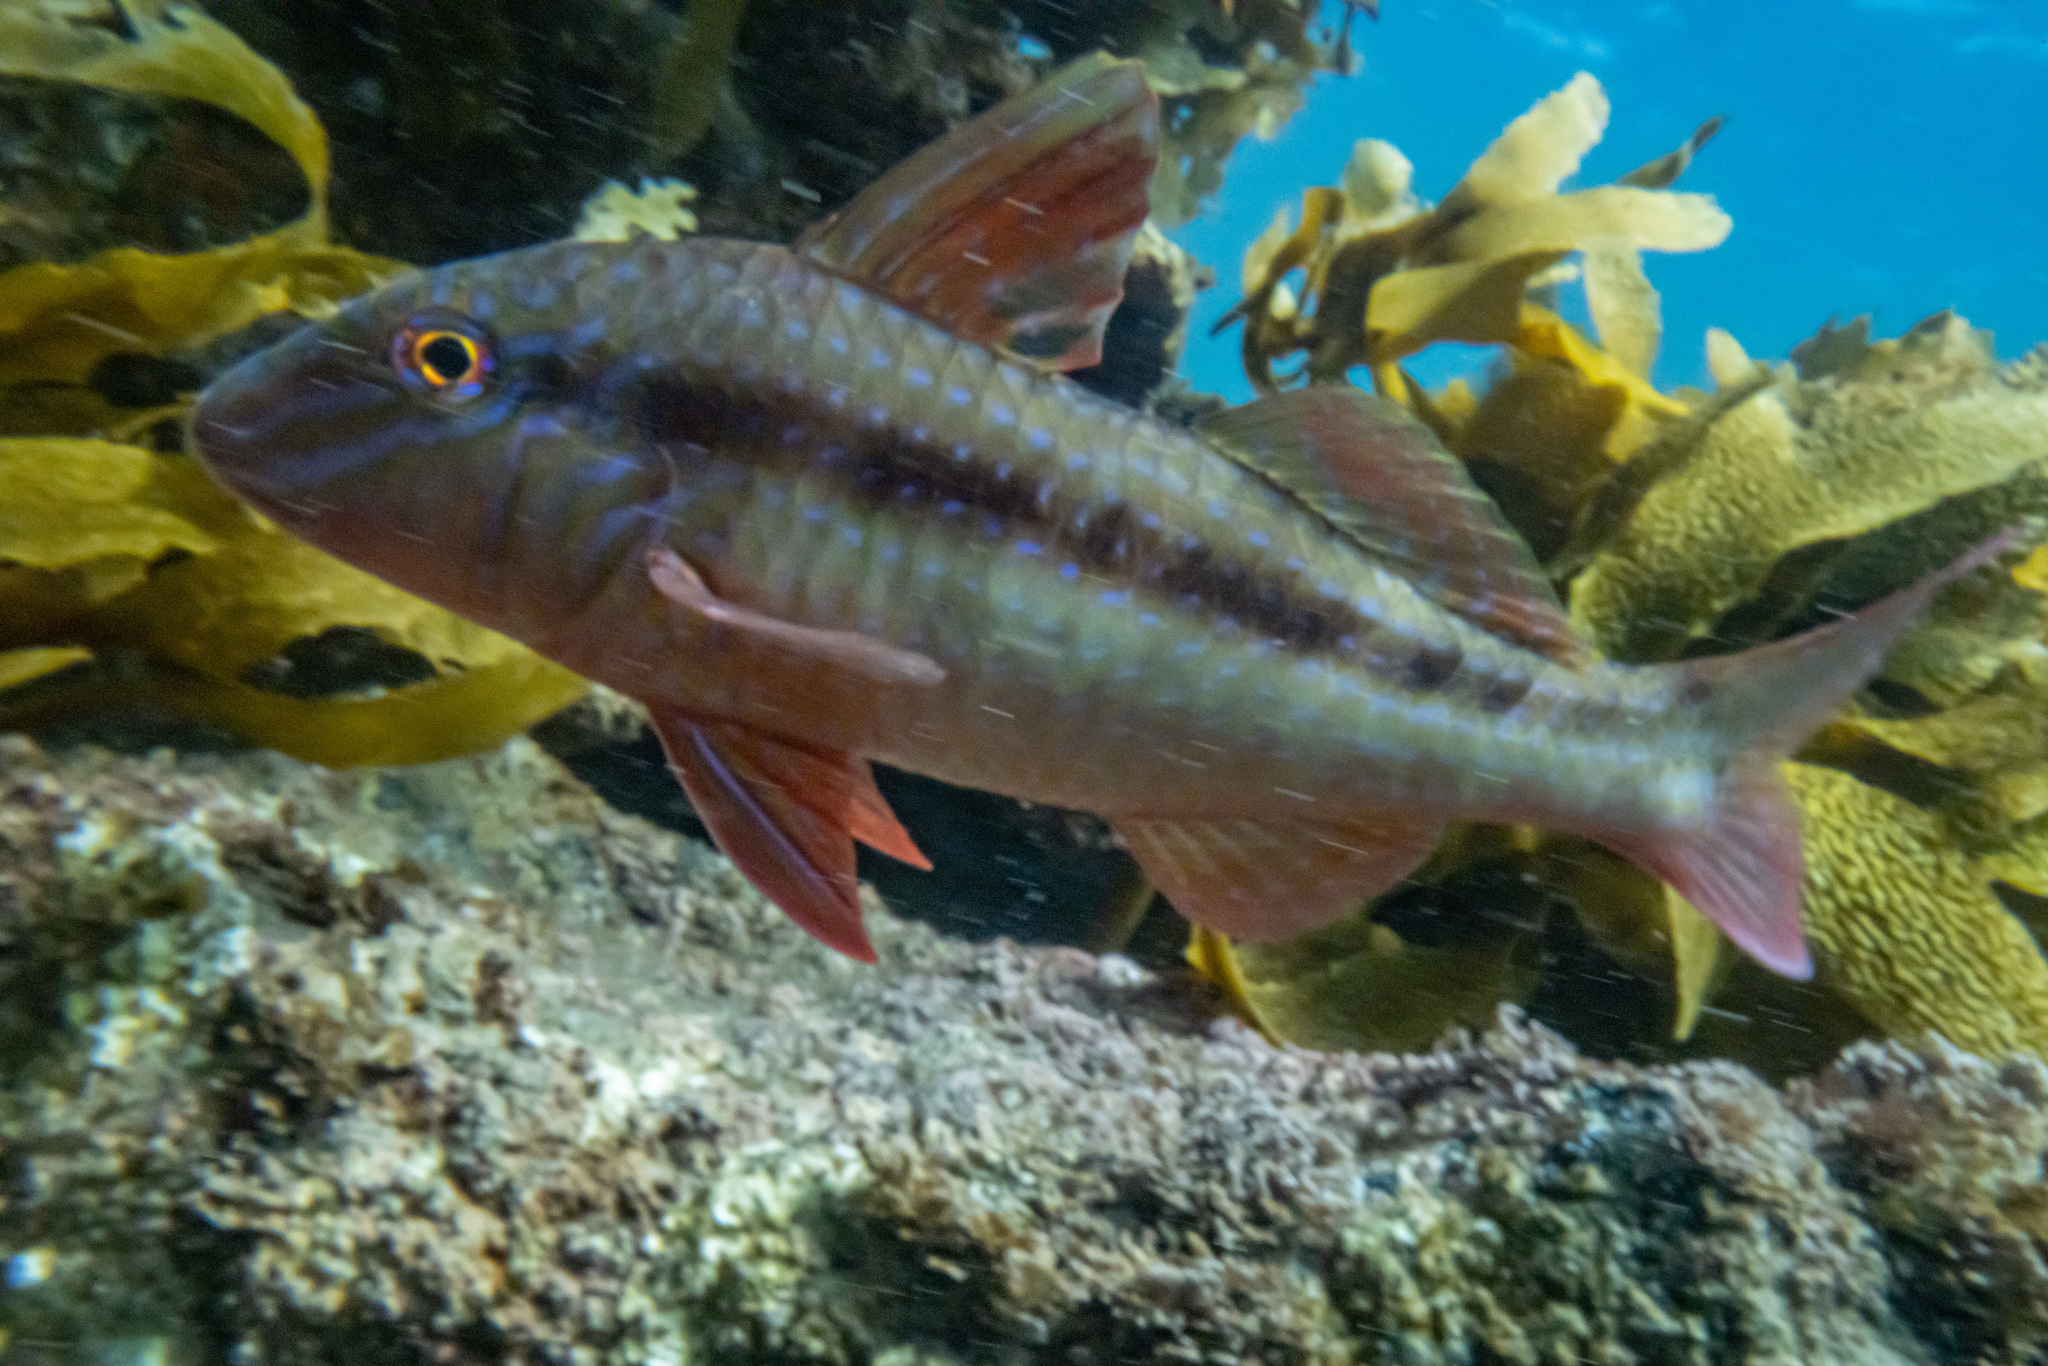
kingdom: Animalia
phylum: Chordata
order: Perciformes
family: Mullidae
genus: Upeneichthys
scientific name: Upeneichthys lineatus
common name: Red mullet
